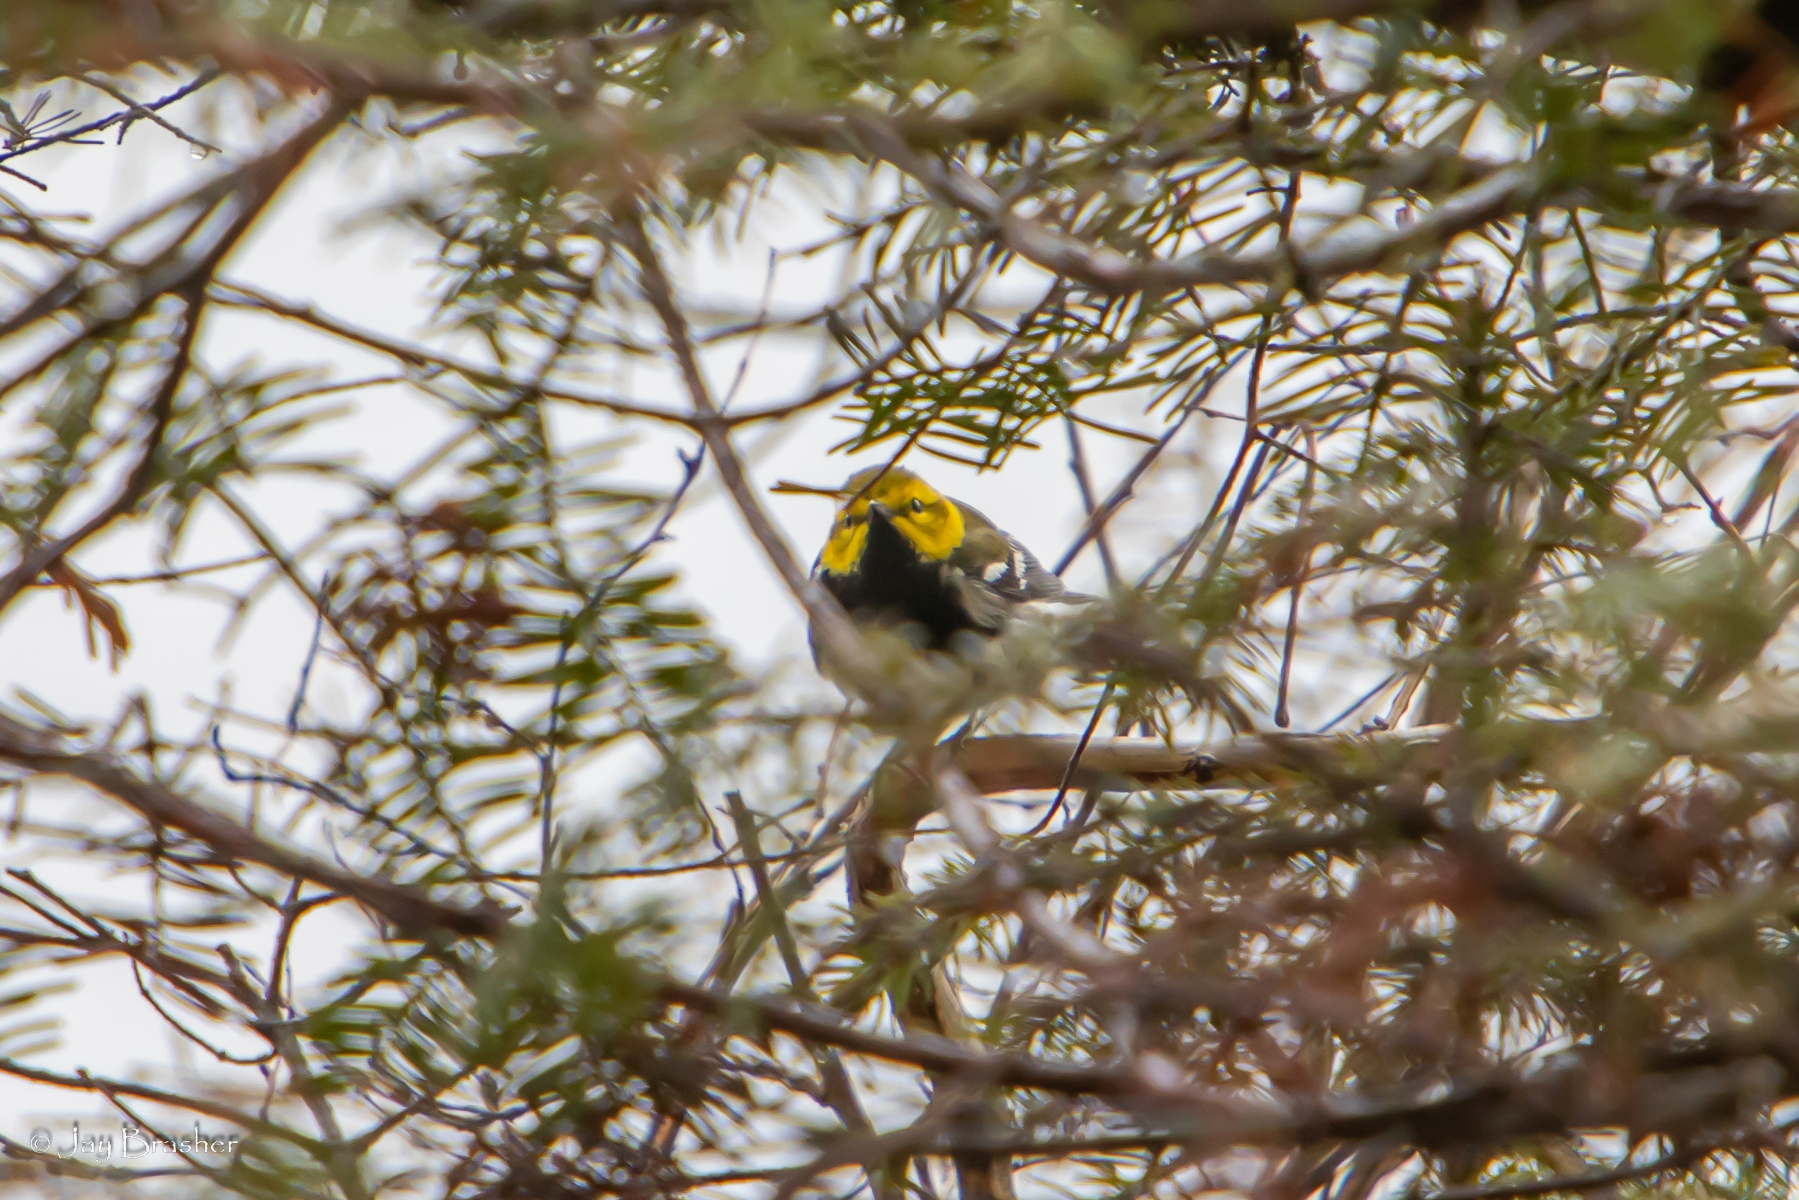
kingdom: Animalia
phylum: Chordata
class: Aves
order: Passeriformes
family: Parulidae
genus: Setophaga
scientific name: Setophaga virens
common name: Black-throated green warbler
